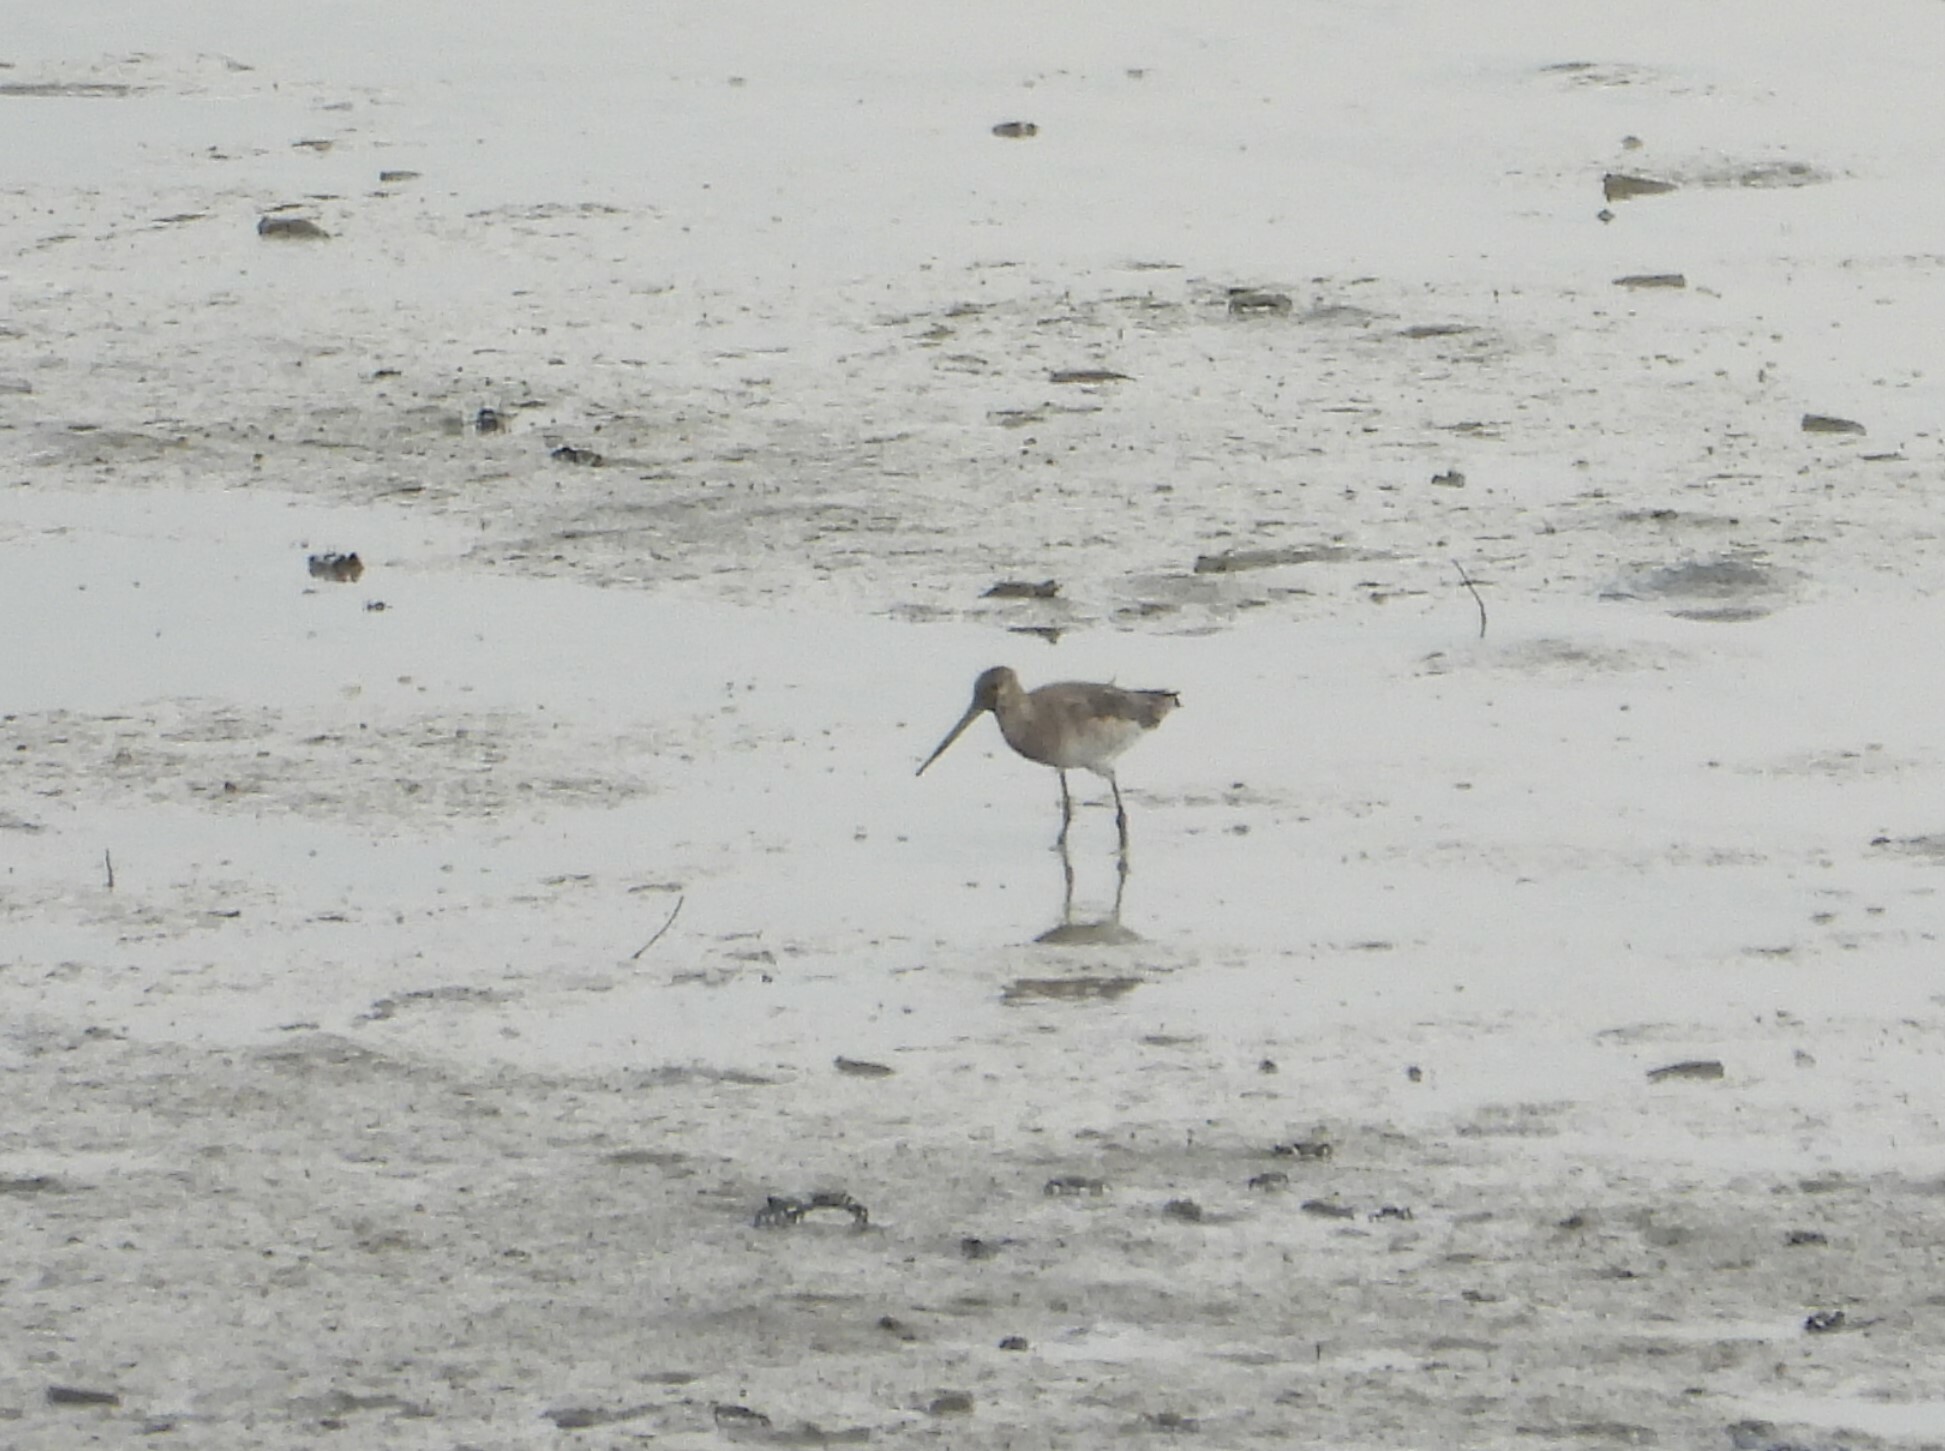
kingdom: Animalia
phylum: Chordata
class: Aves
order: Charadriiformes
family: Scolopacidae
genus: Limosa
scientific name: Limosa limosa
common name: Black-tailed godwit
